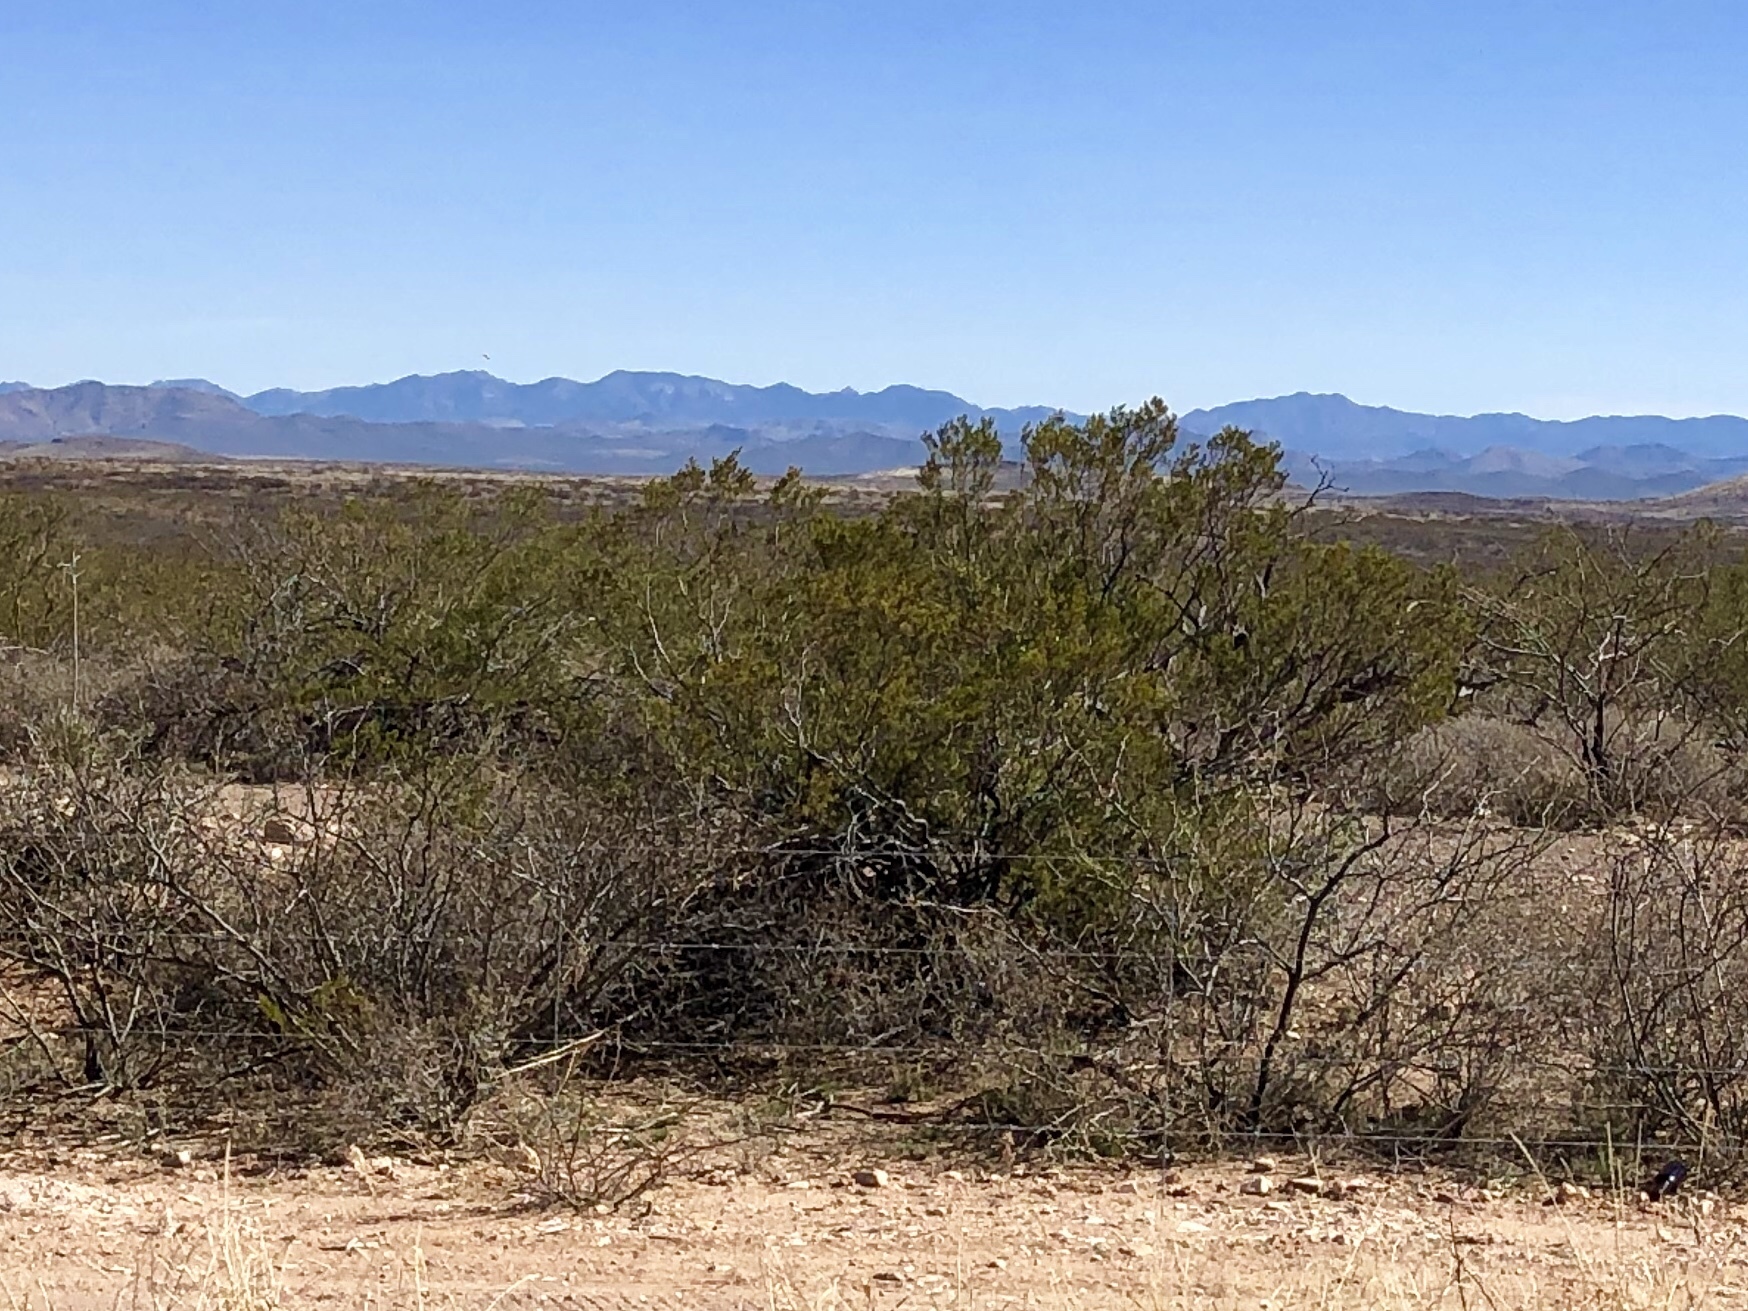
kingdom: Plantae
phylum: Tracheophyta
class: Magnoliopsida
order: Zygophyllales
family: Zygophyllaceae
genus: Larrea
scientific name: Larrea tridentata
